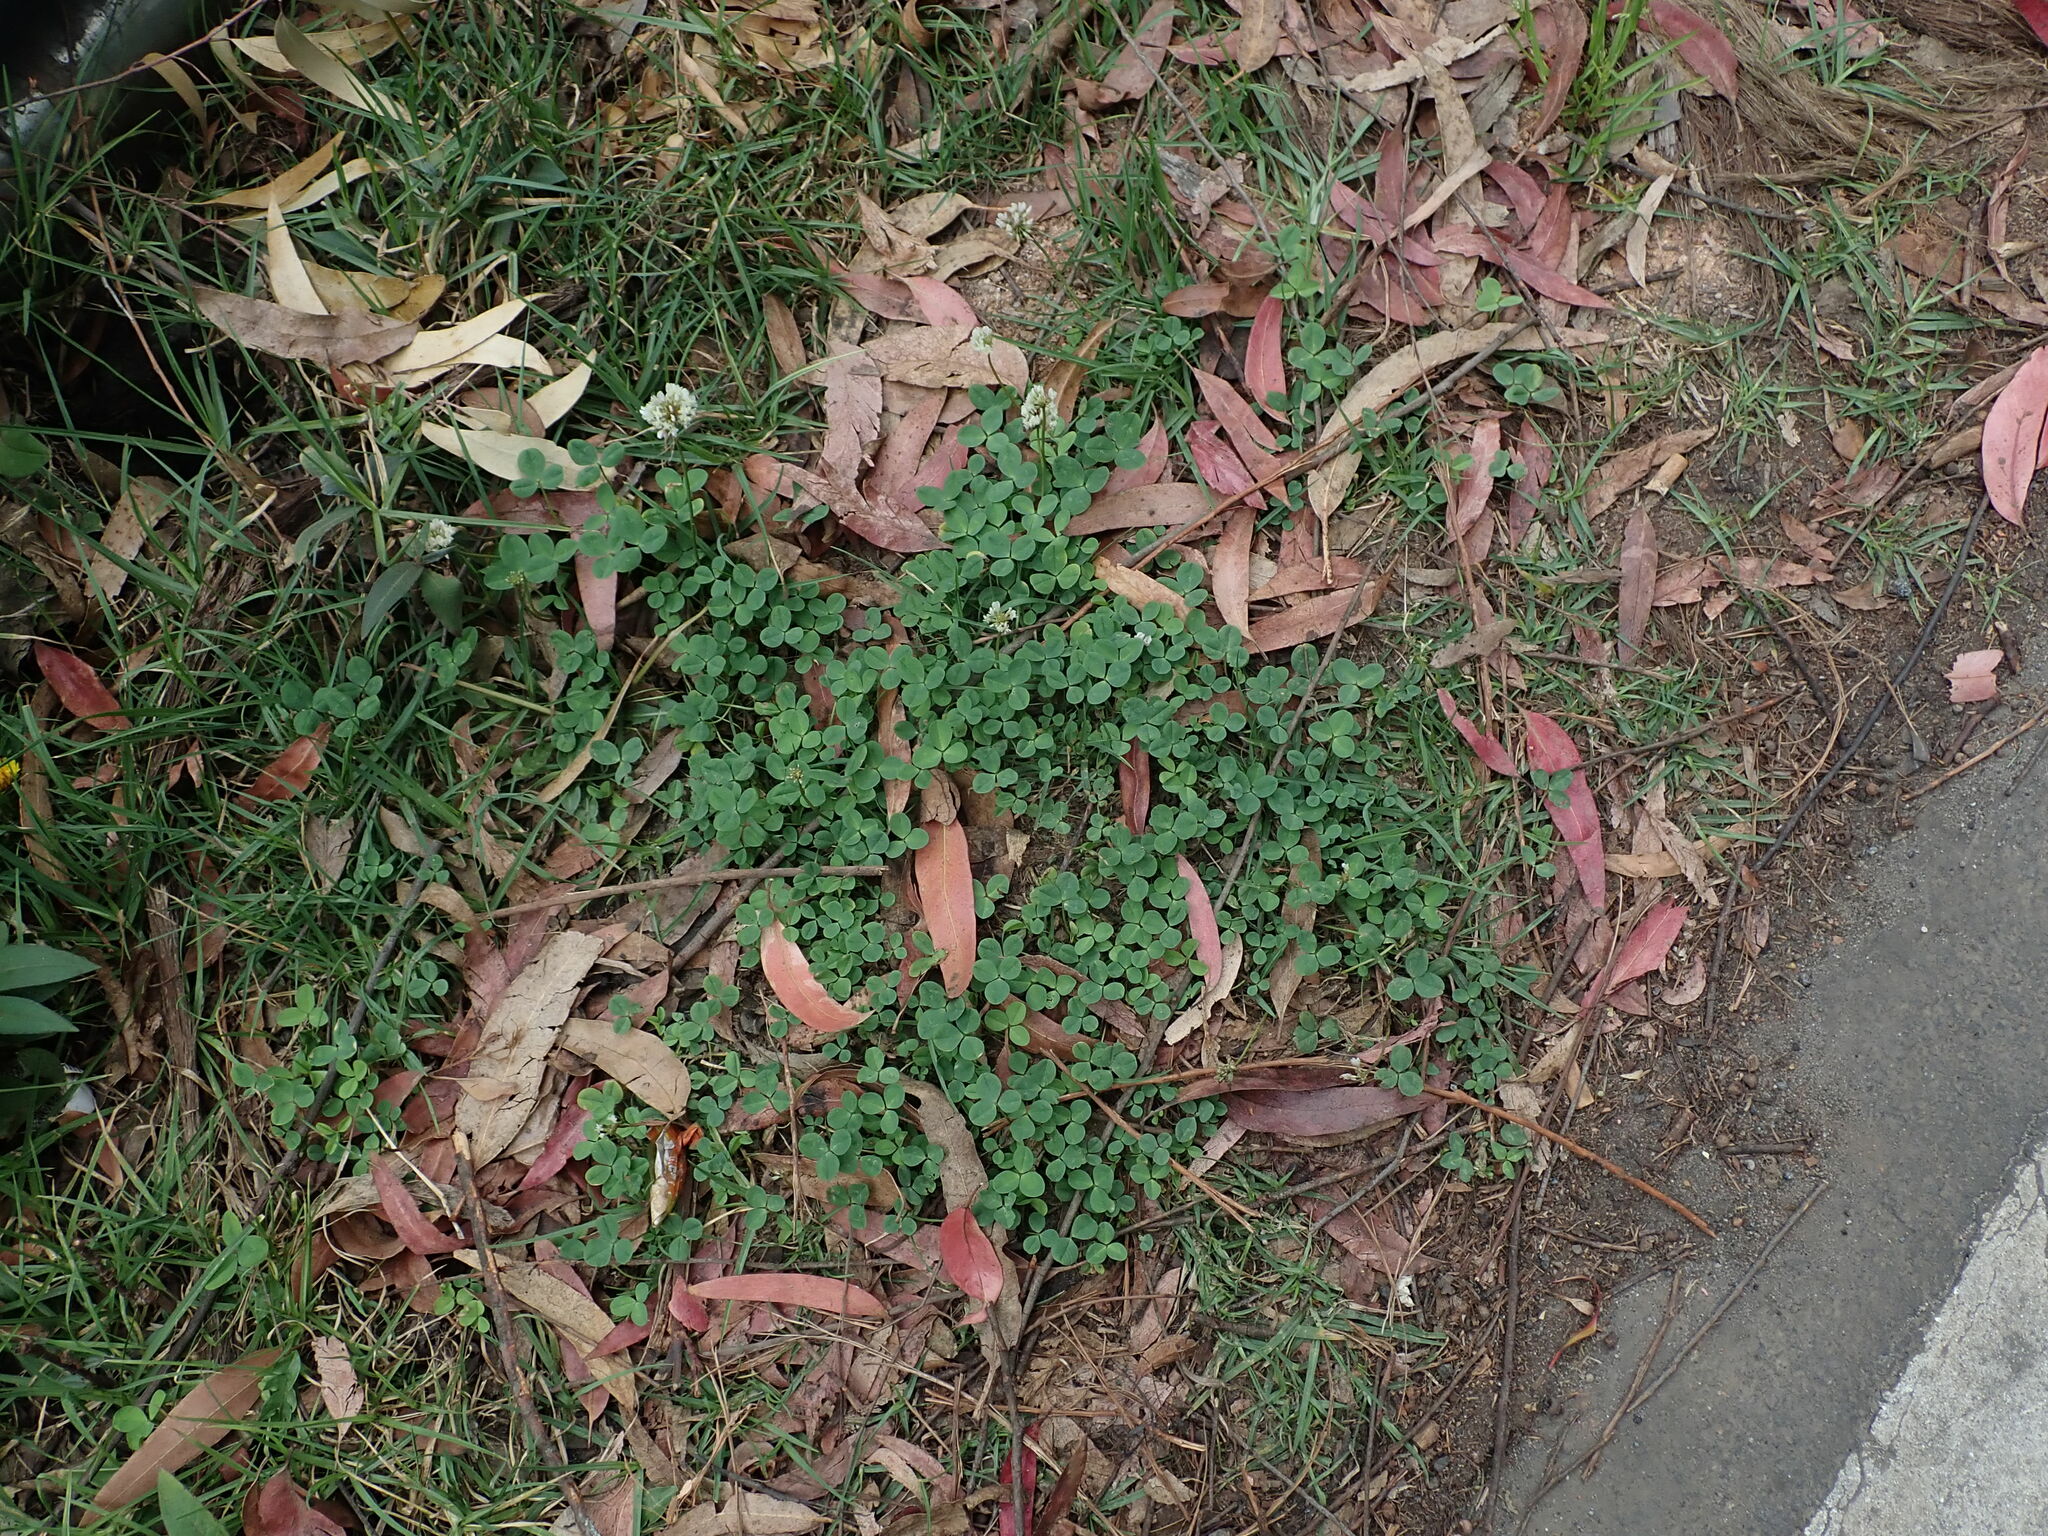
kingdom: Plantae
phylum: Tracheophyta
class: Magnoliopsida
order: Fabales
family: Fabaceae
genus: Trifolium
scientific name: Trifolium repens
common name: White clover
